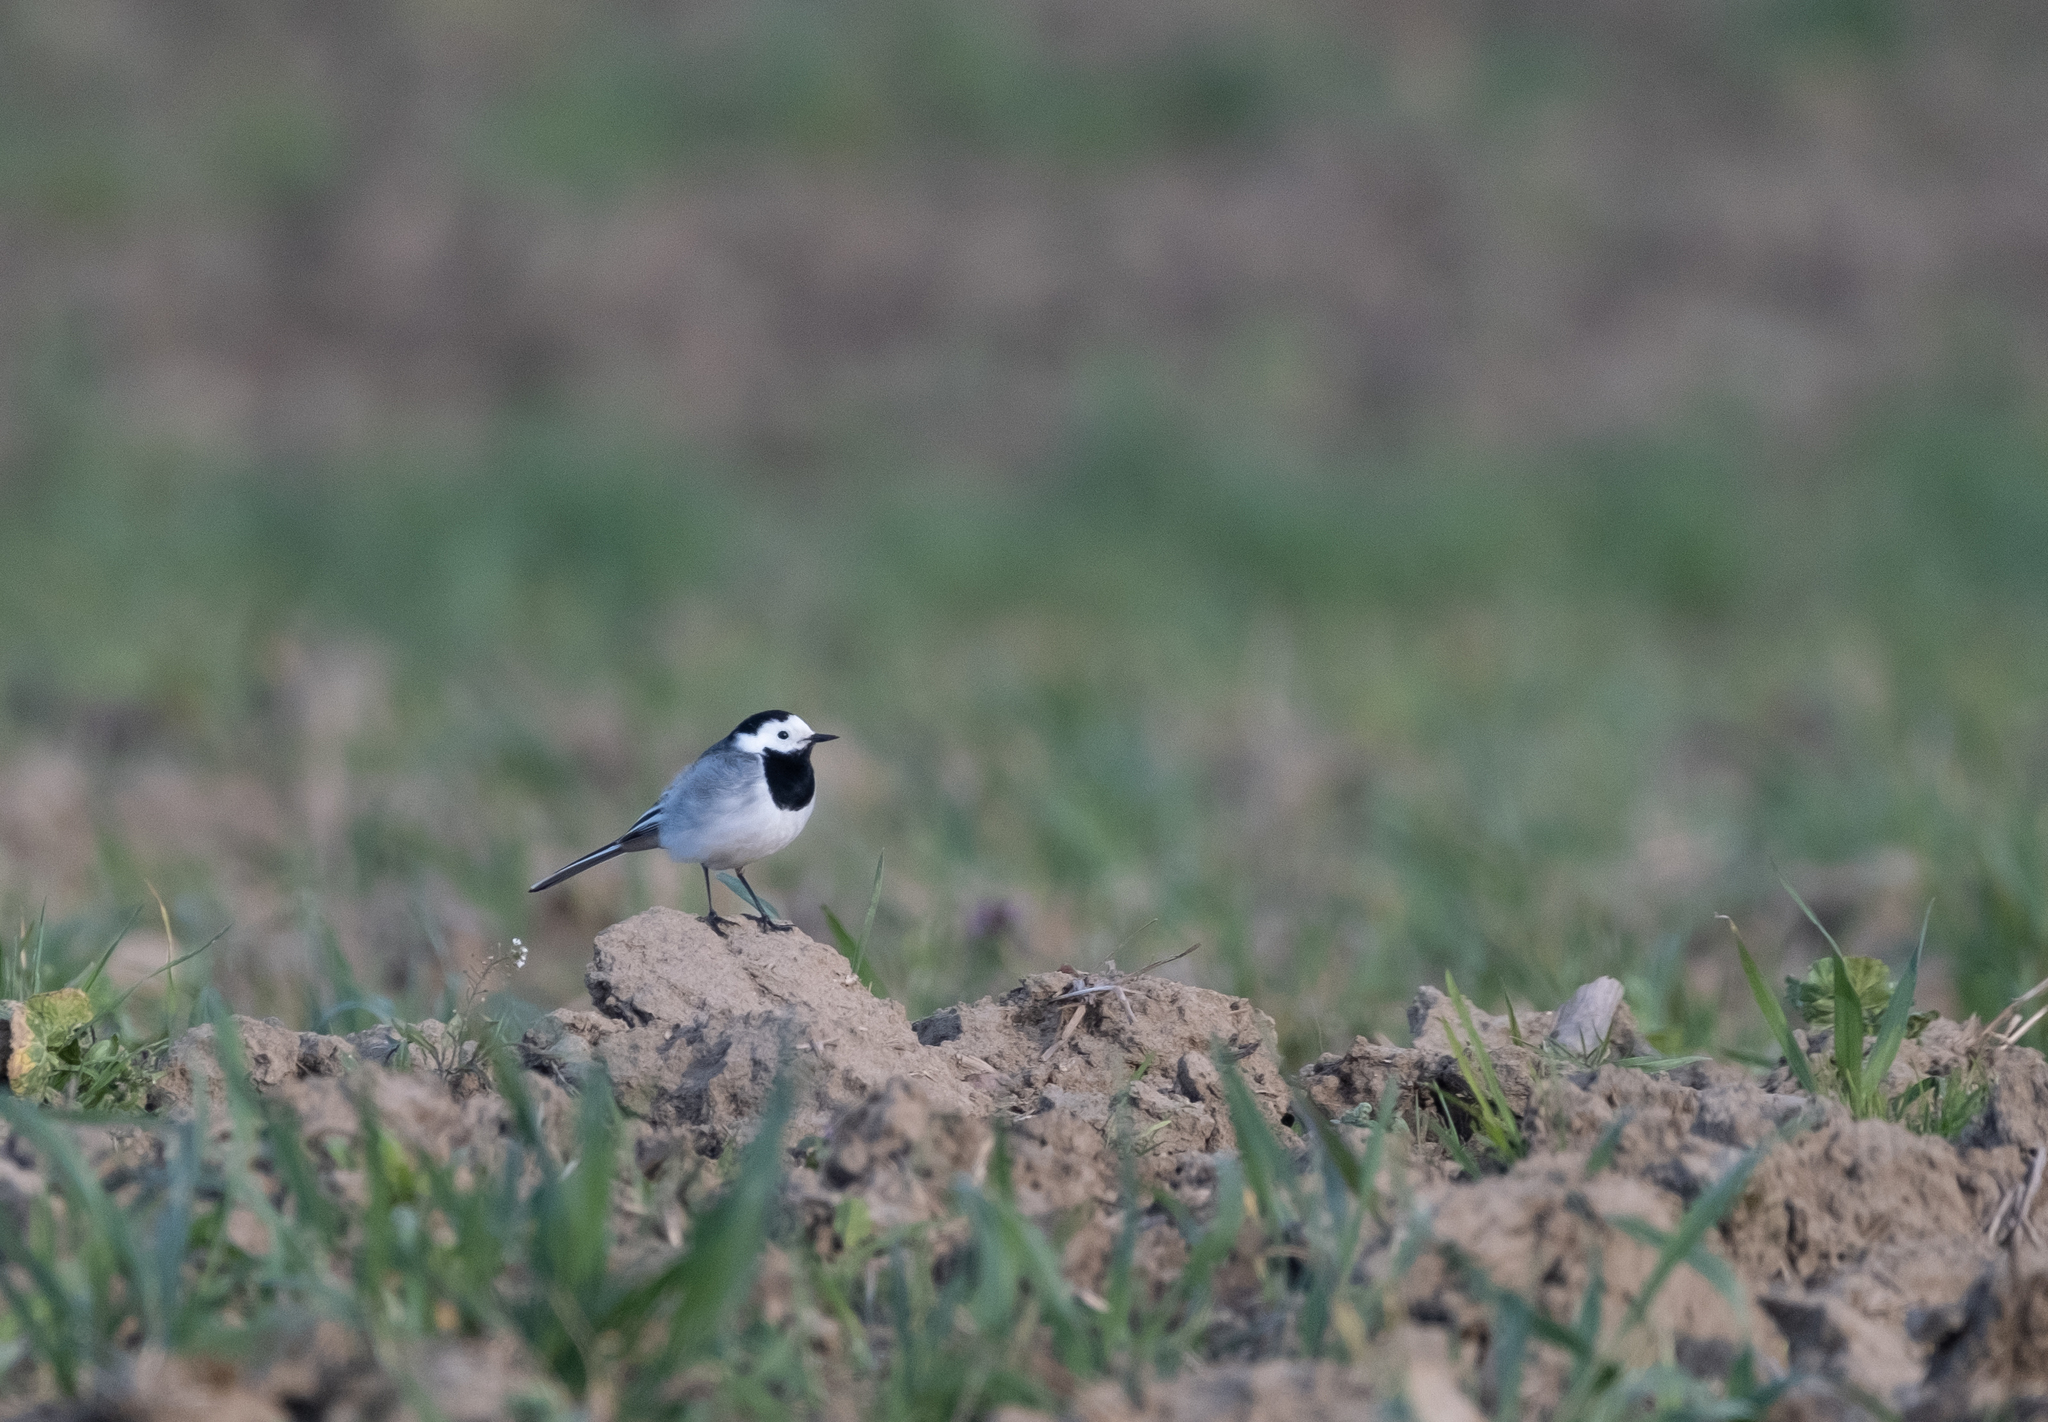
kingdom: Animalia
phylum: Chordata
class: Aves
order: Passeriformes
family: Motacillidae
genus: Motacilla
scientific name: Motacilla alba
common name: White wagtail
